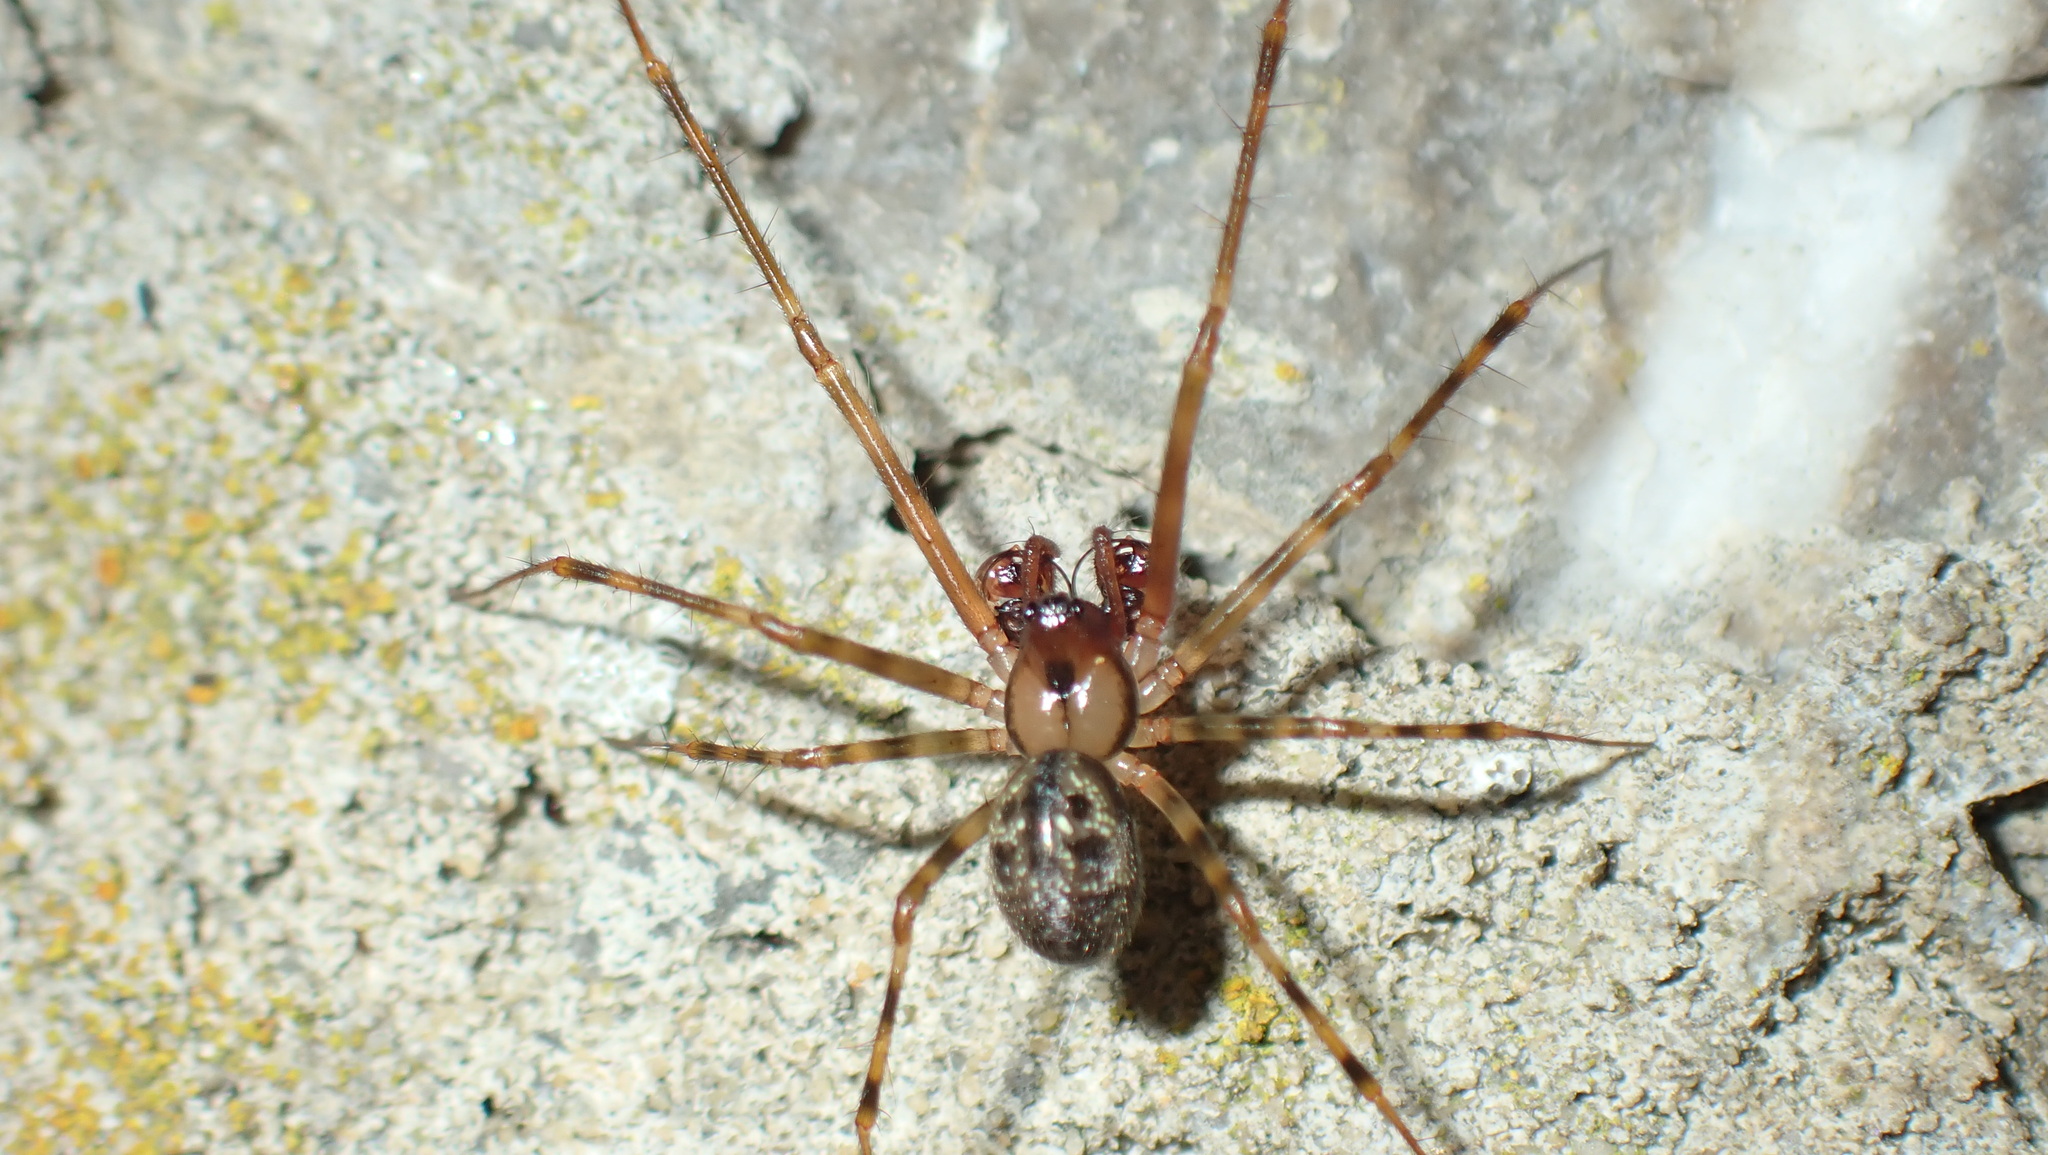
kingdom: Animalia
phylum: Arthropoda
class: Arachnida
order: Araneae
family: Linyphiidae
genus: Labulla
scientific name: Labulla thoracica
